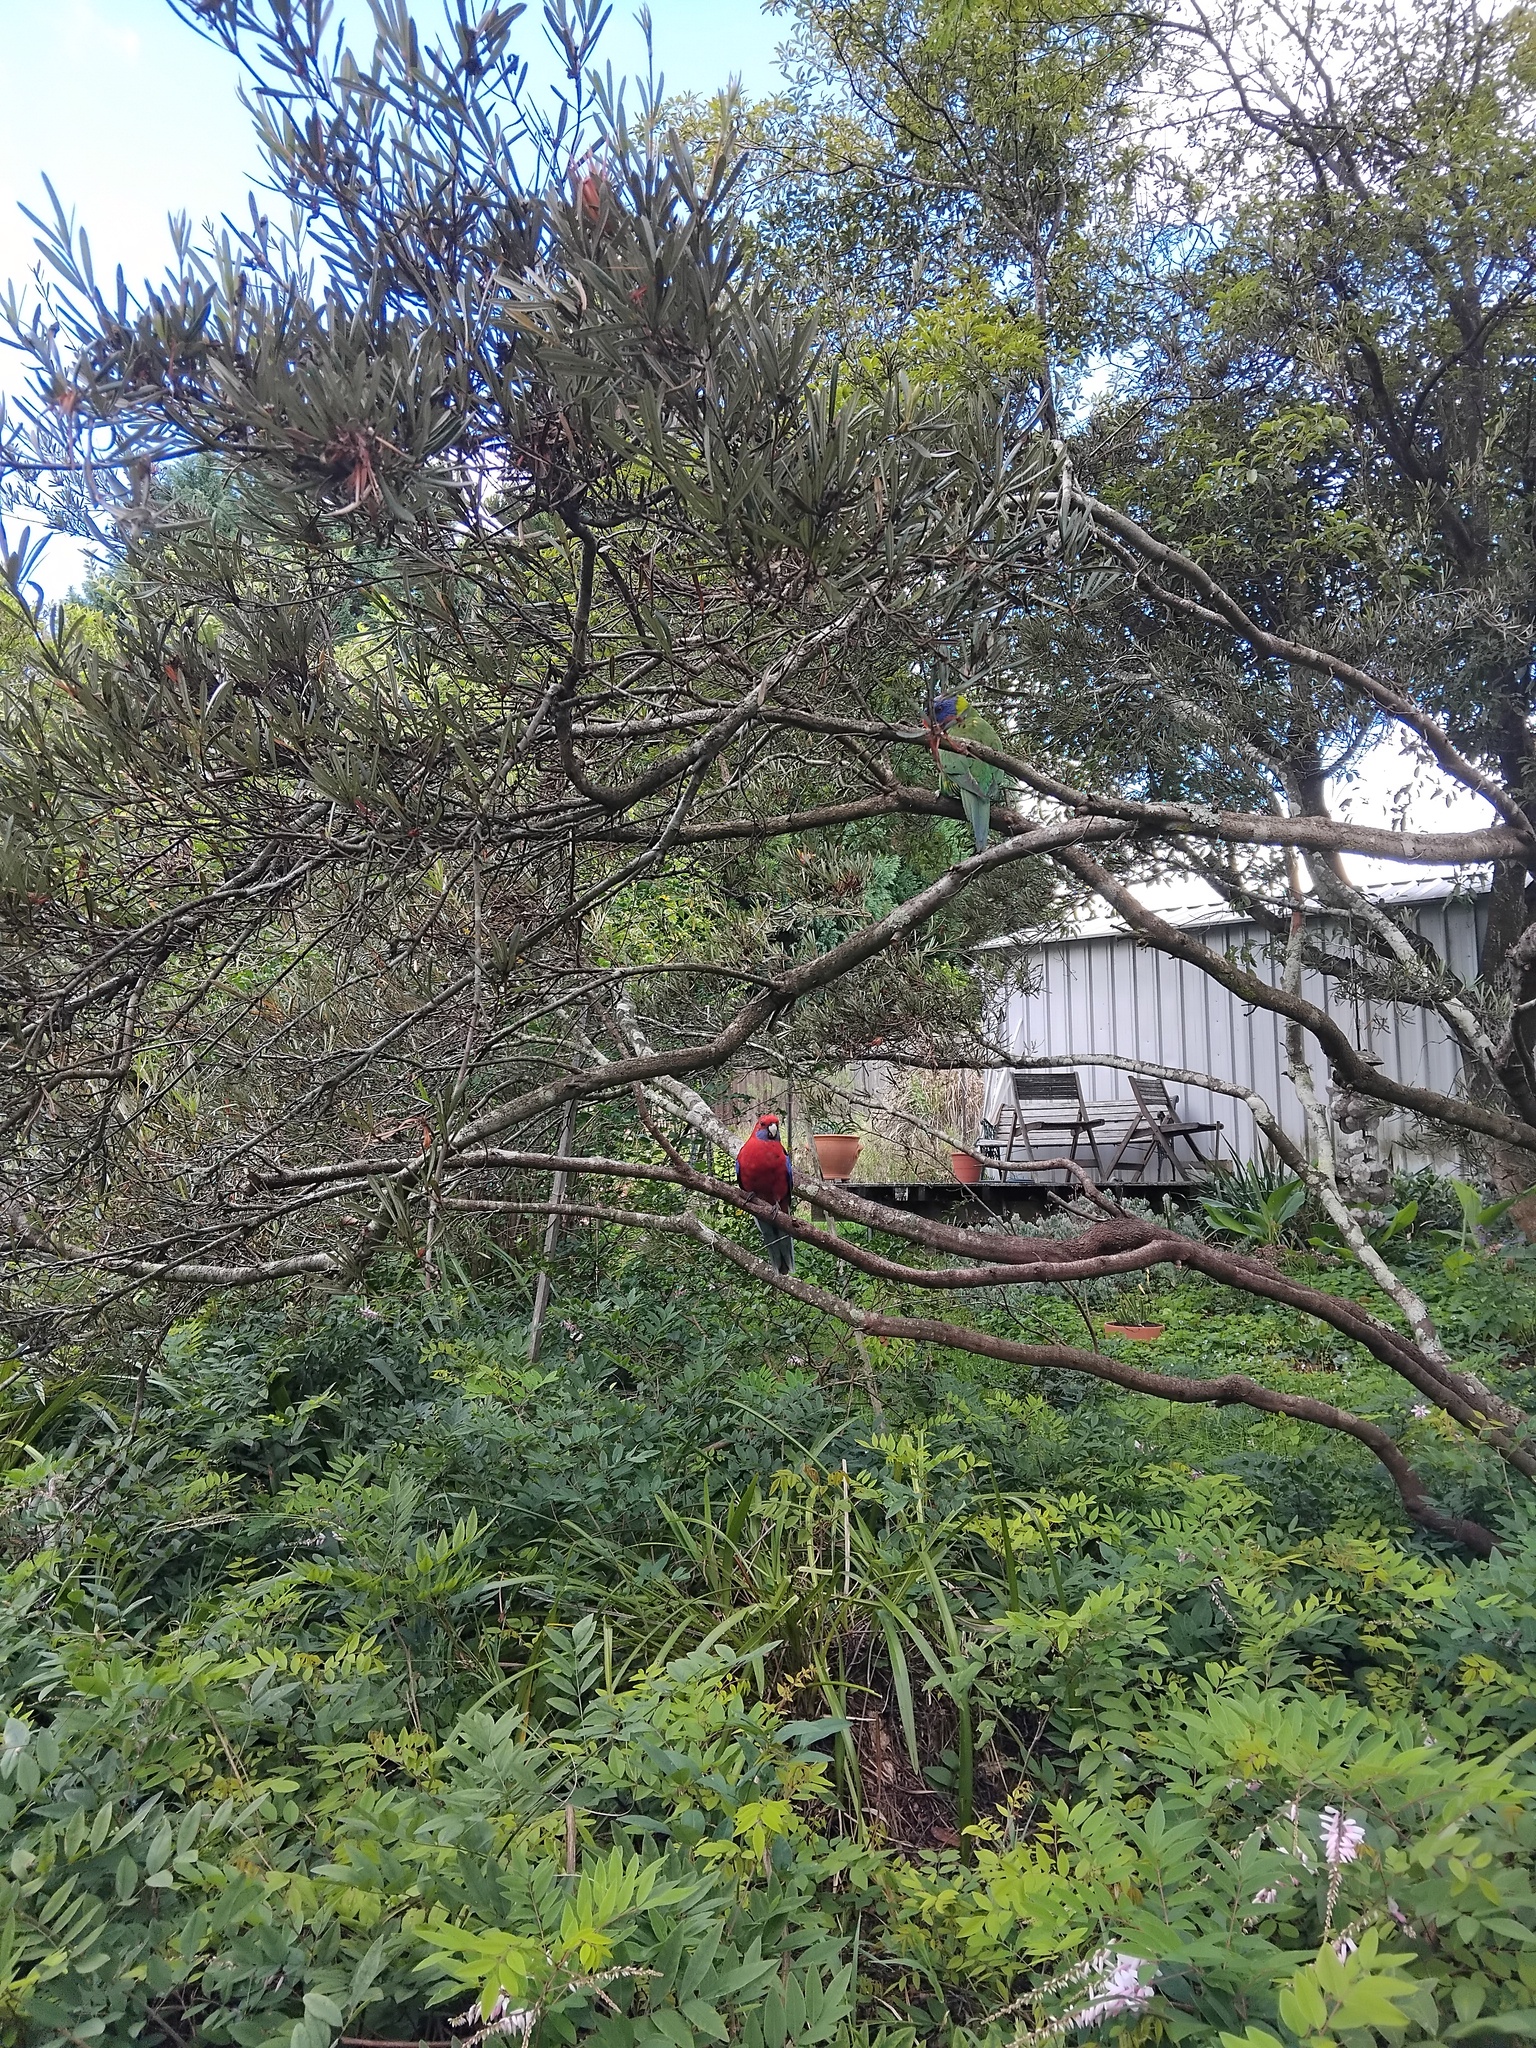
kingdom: Animalia
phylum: Chordata
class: Aves
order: Psittaciformes
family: Psittacidae
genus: Platycercus
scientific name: Platycercus elegans
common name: Crimson rosella
